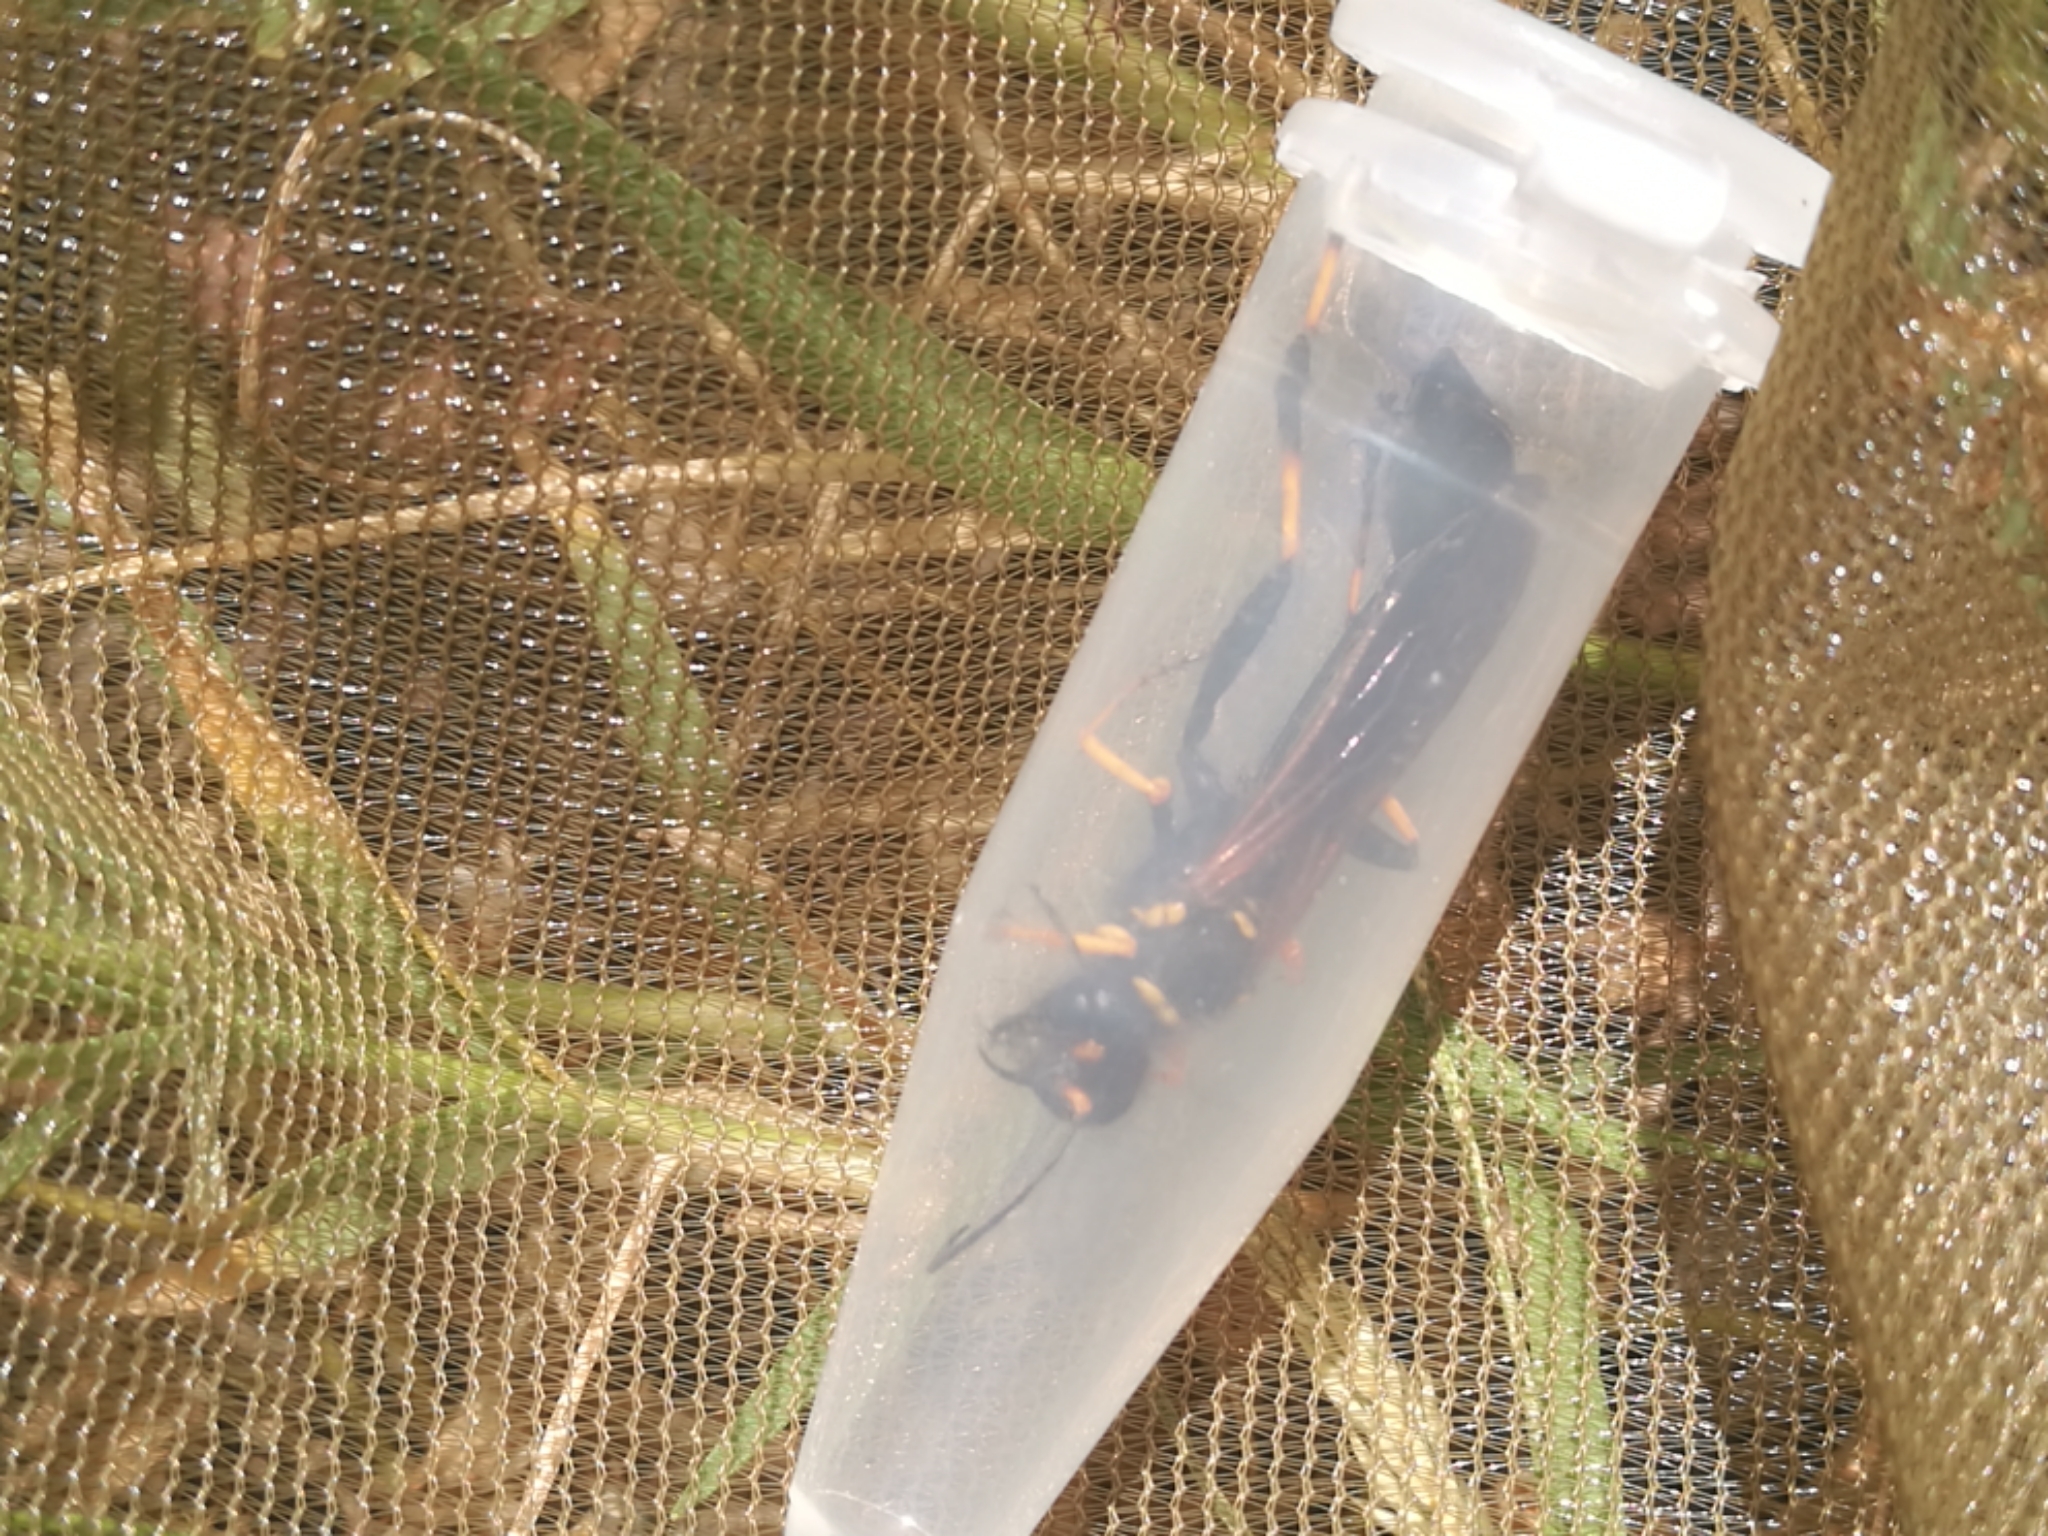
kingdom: Animalia
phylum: Arthropoda
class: Insecta
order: Hymenoptera
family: Sphecidae
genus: Sceliphron
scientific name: Sceliphron caementarium
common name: Mud dauber
